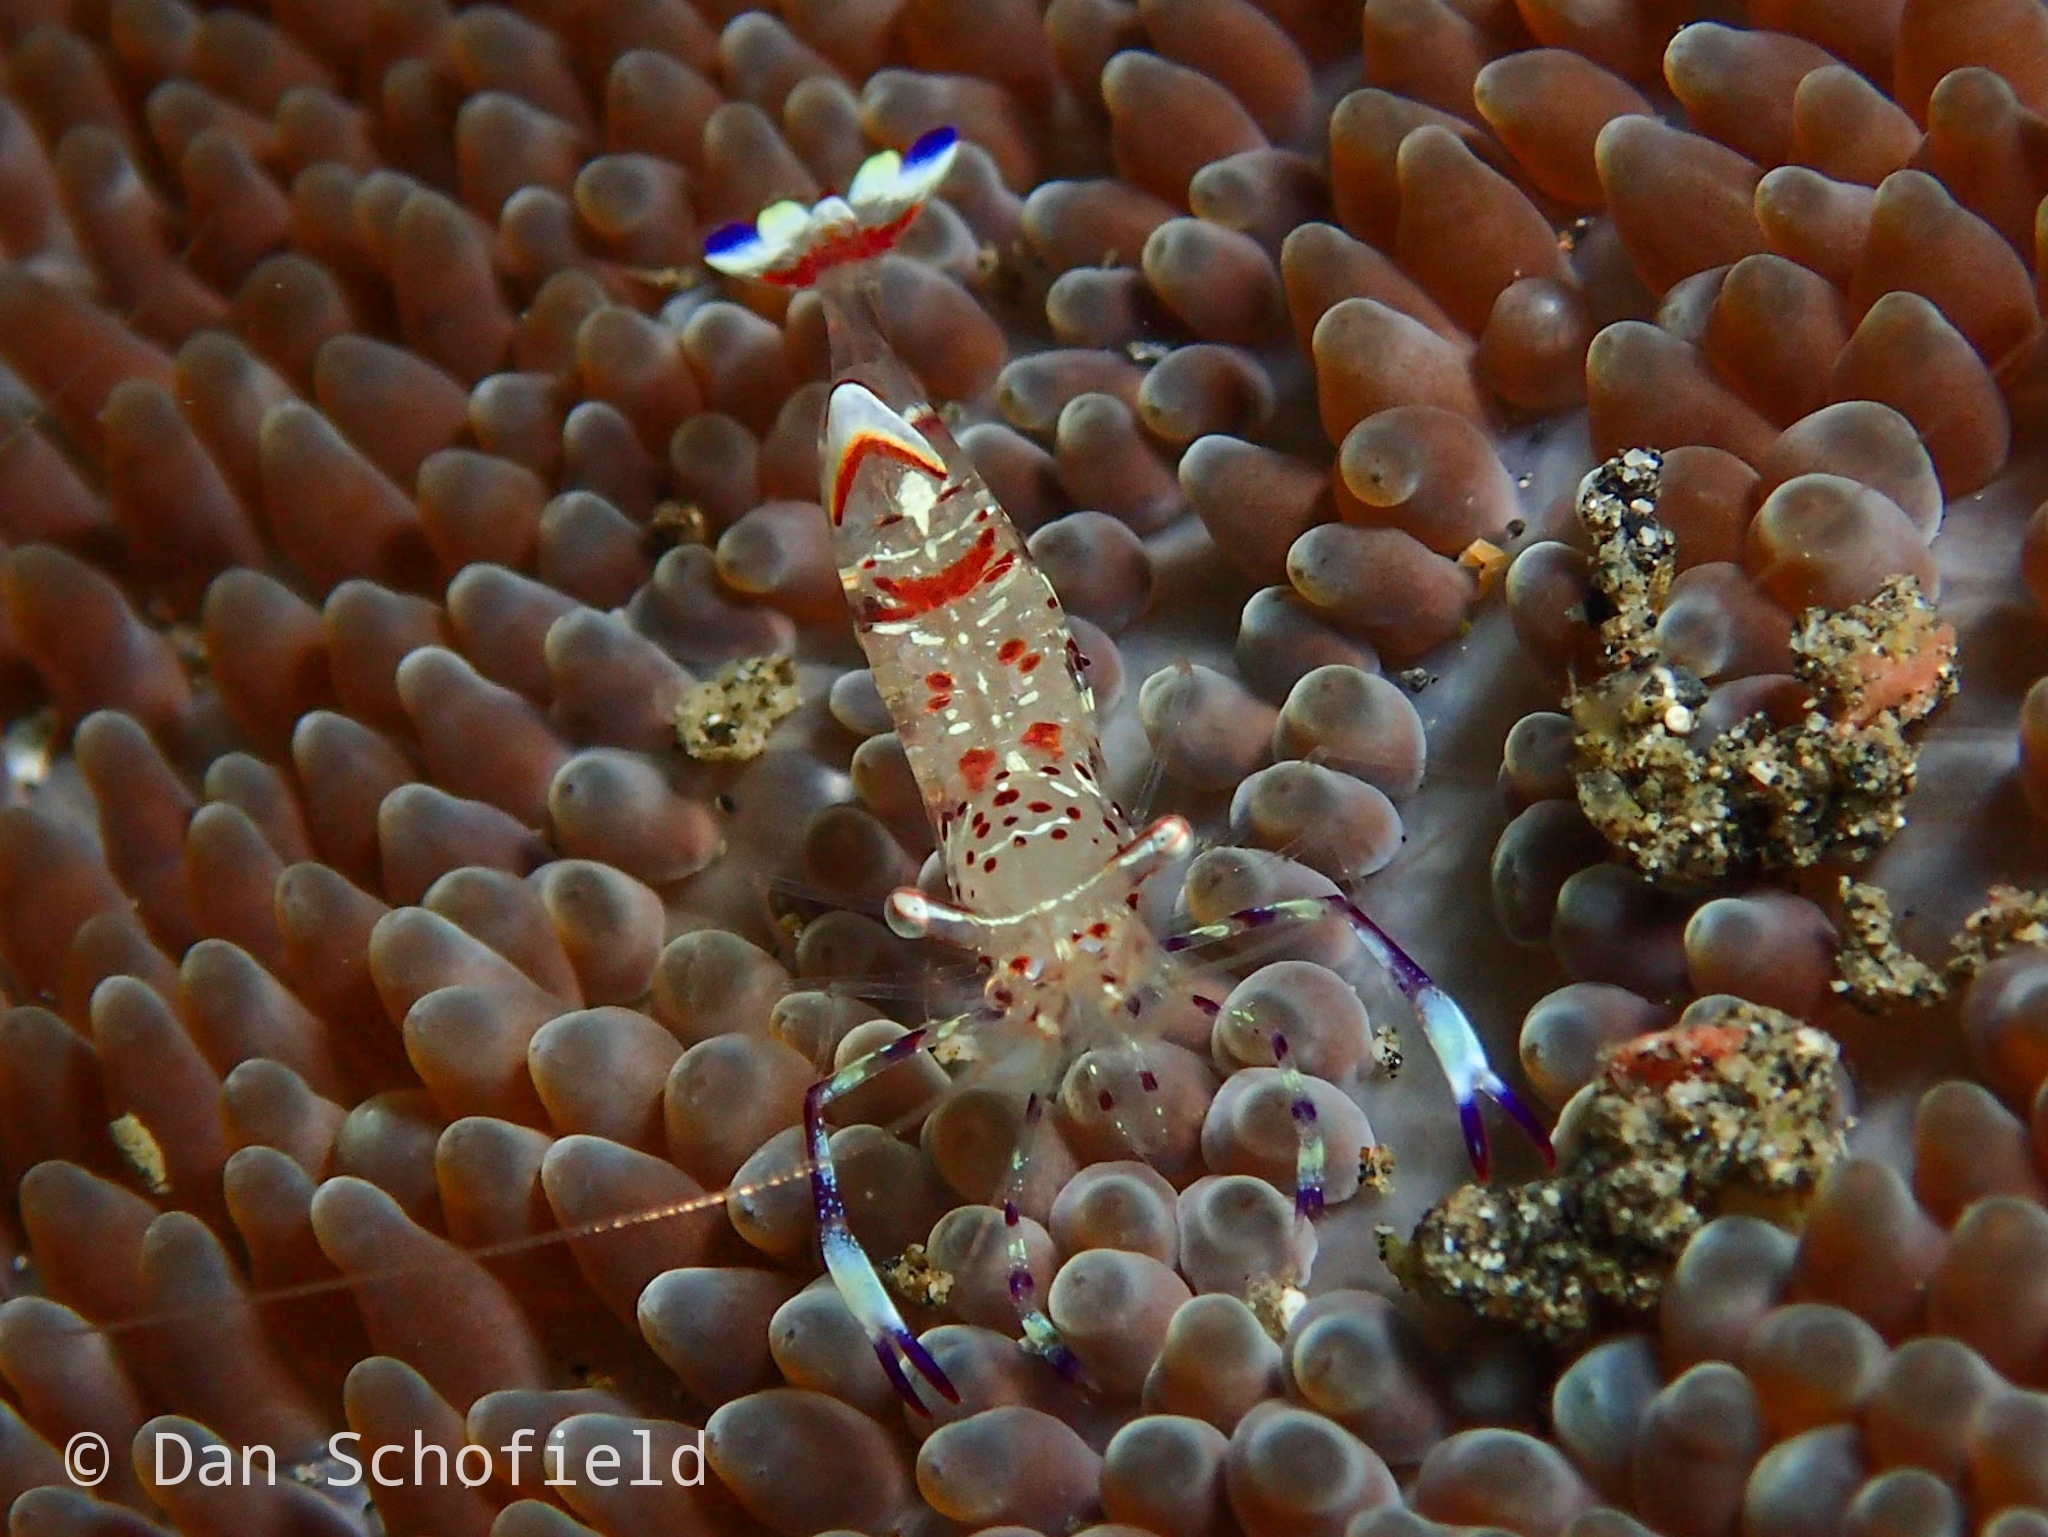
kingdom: Animalia
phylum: Arthropoda
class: Malacostraca
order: Decapoda
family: Palaemonidae
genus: Ancylomenes
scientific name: Ancylomenes holthuisi
